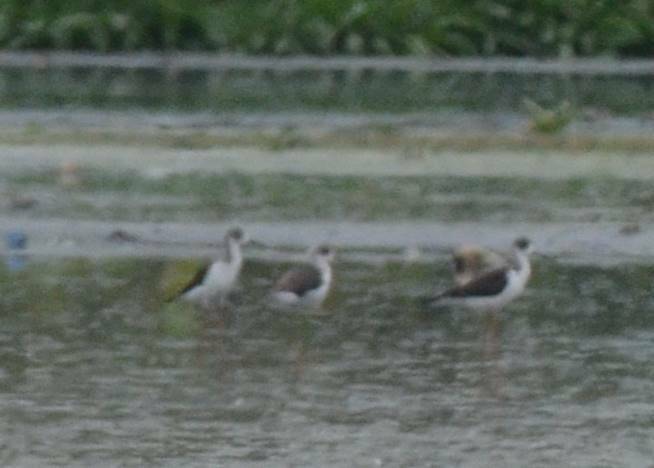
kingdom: Animalia
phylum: Chordata
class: Aves
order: Charadriiformes
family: Recurvirostridae
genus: Himantopus
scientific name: Himantopus himantopus
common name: Black-winged stilt
